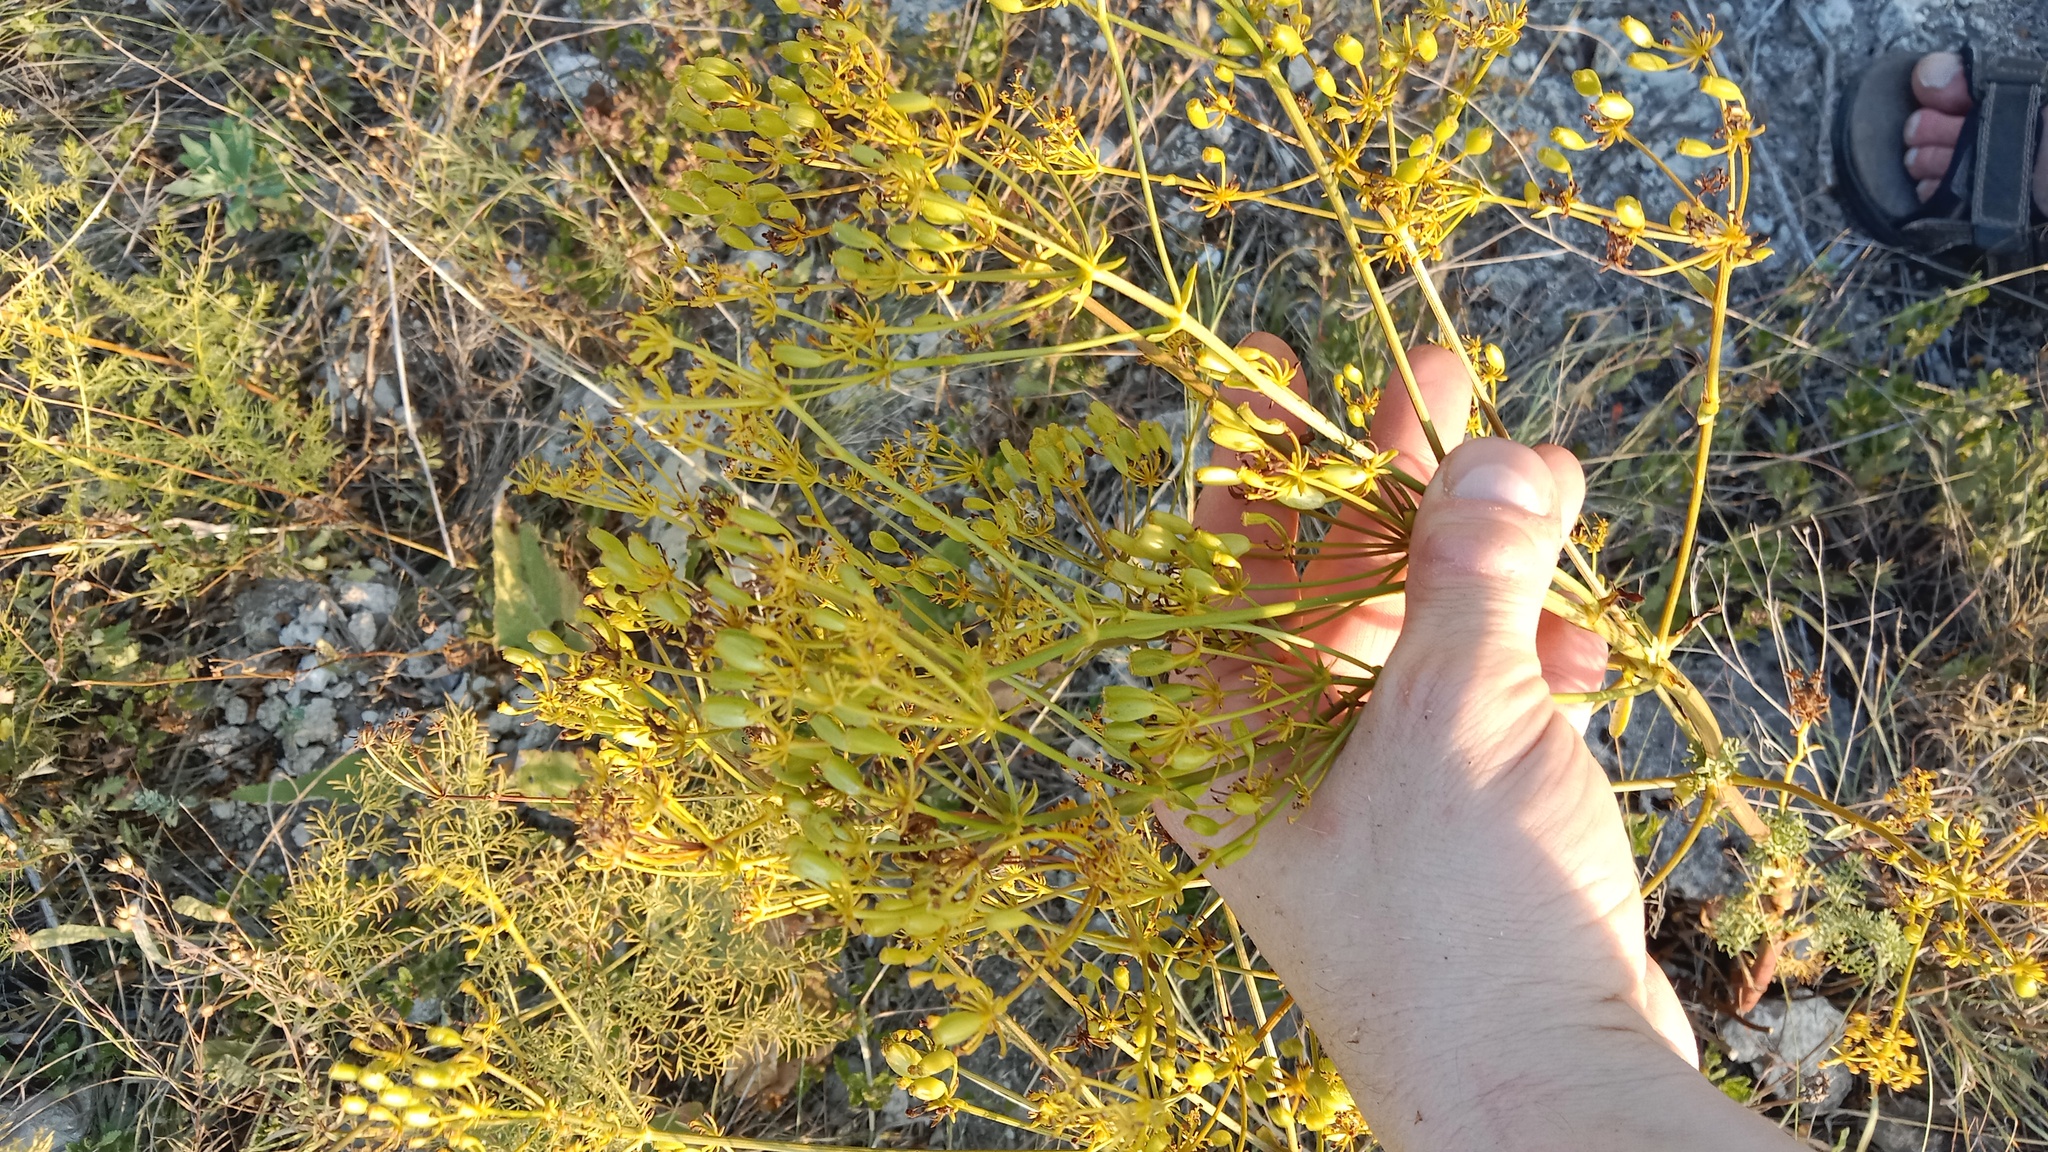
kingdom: Plantae
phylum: Tracheophyta
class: Magnoliopsida
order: Apiales
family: Apiaceae
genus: Ferulago
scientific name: Ferulago galbanifera
